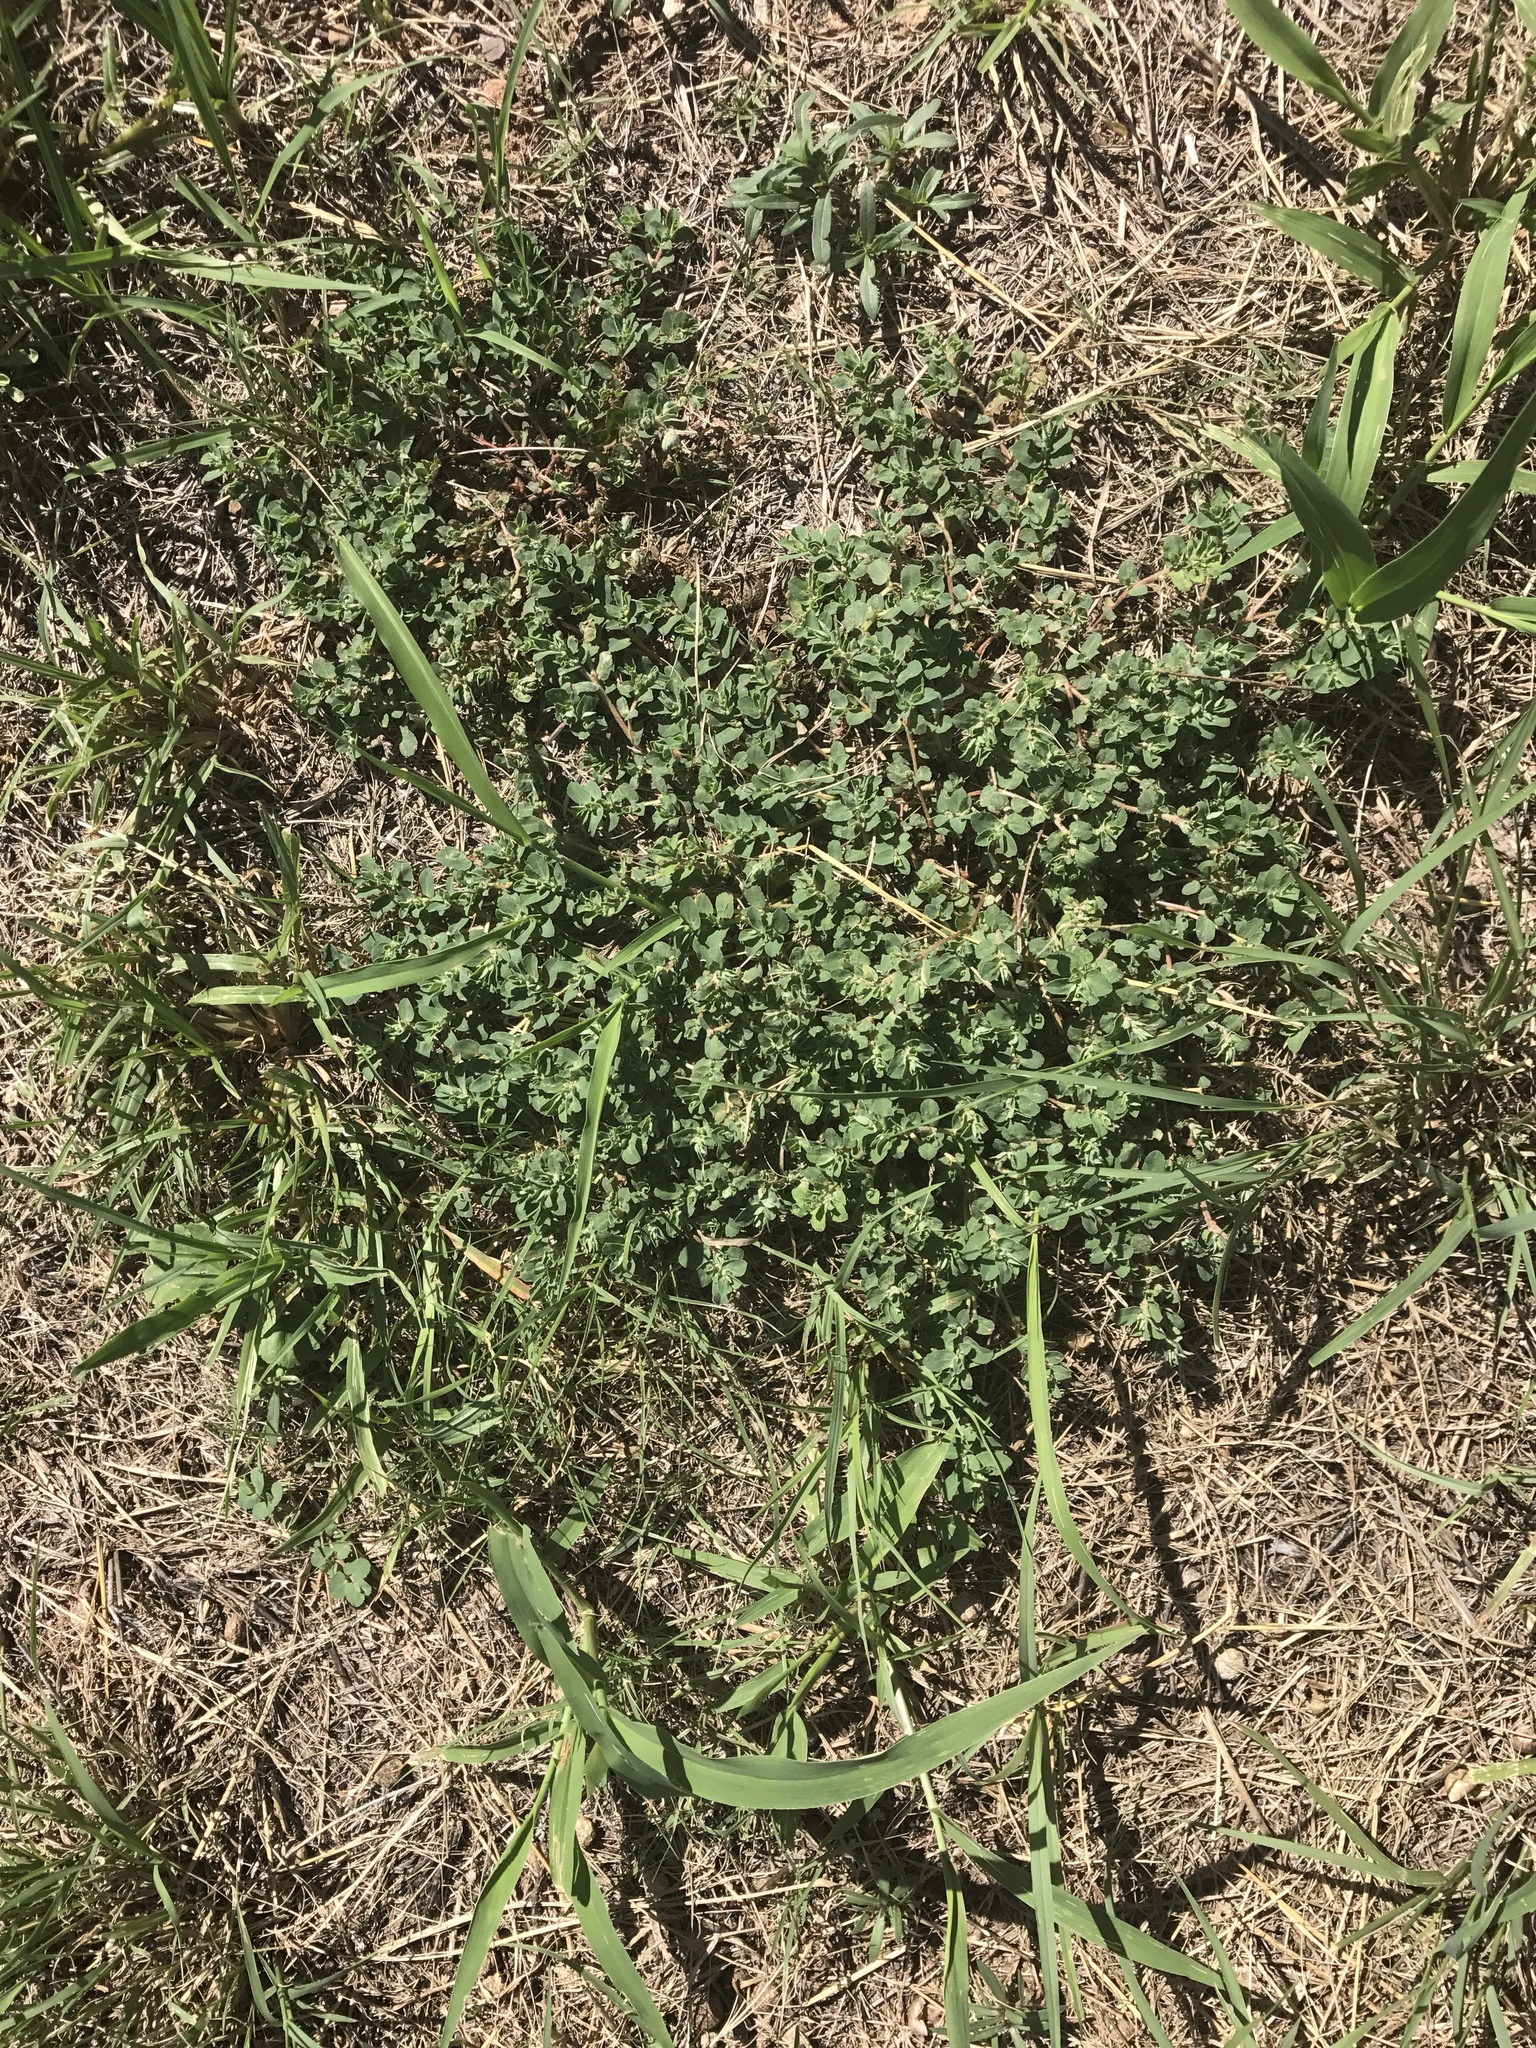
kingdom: Plantae
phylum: Tracheophyta
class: Magnoliopsida
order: Malpighiales
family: Euphorbiaceae
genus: Euphorbia
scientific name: Euphorbia stictospora
